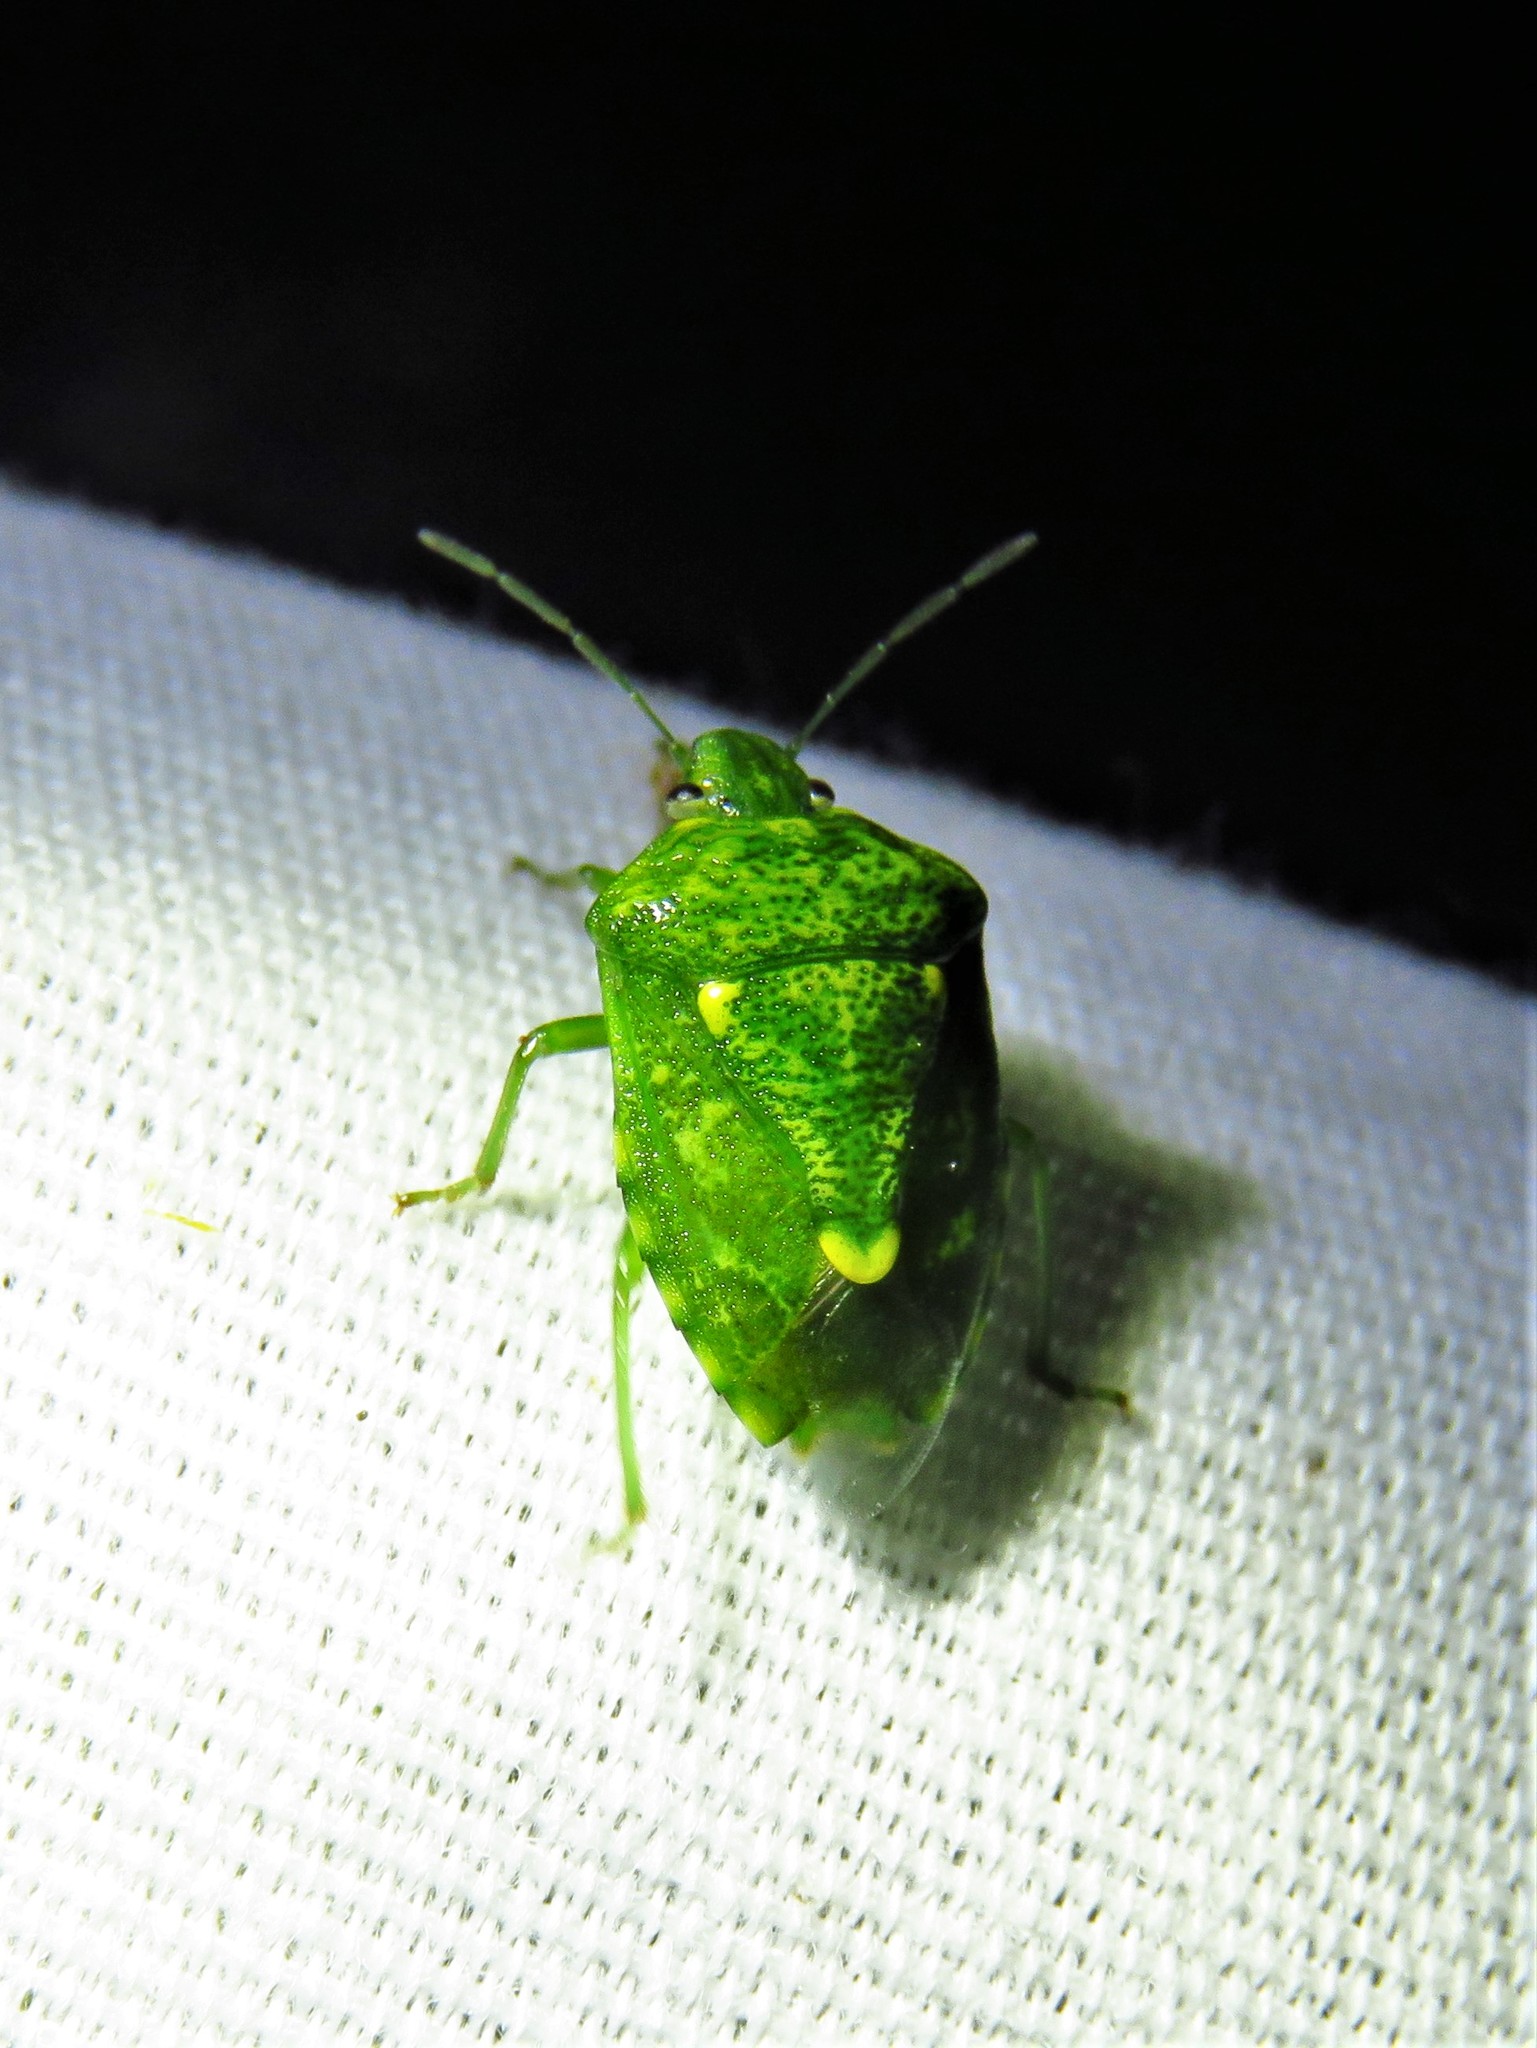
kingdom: Animalia
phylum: Arthropoda
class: Insecta
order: Hemiptera
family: Pentatomidae
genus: Banasa
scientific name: Banasa euchlora
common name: Cedar berry bug
